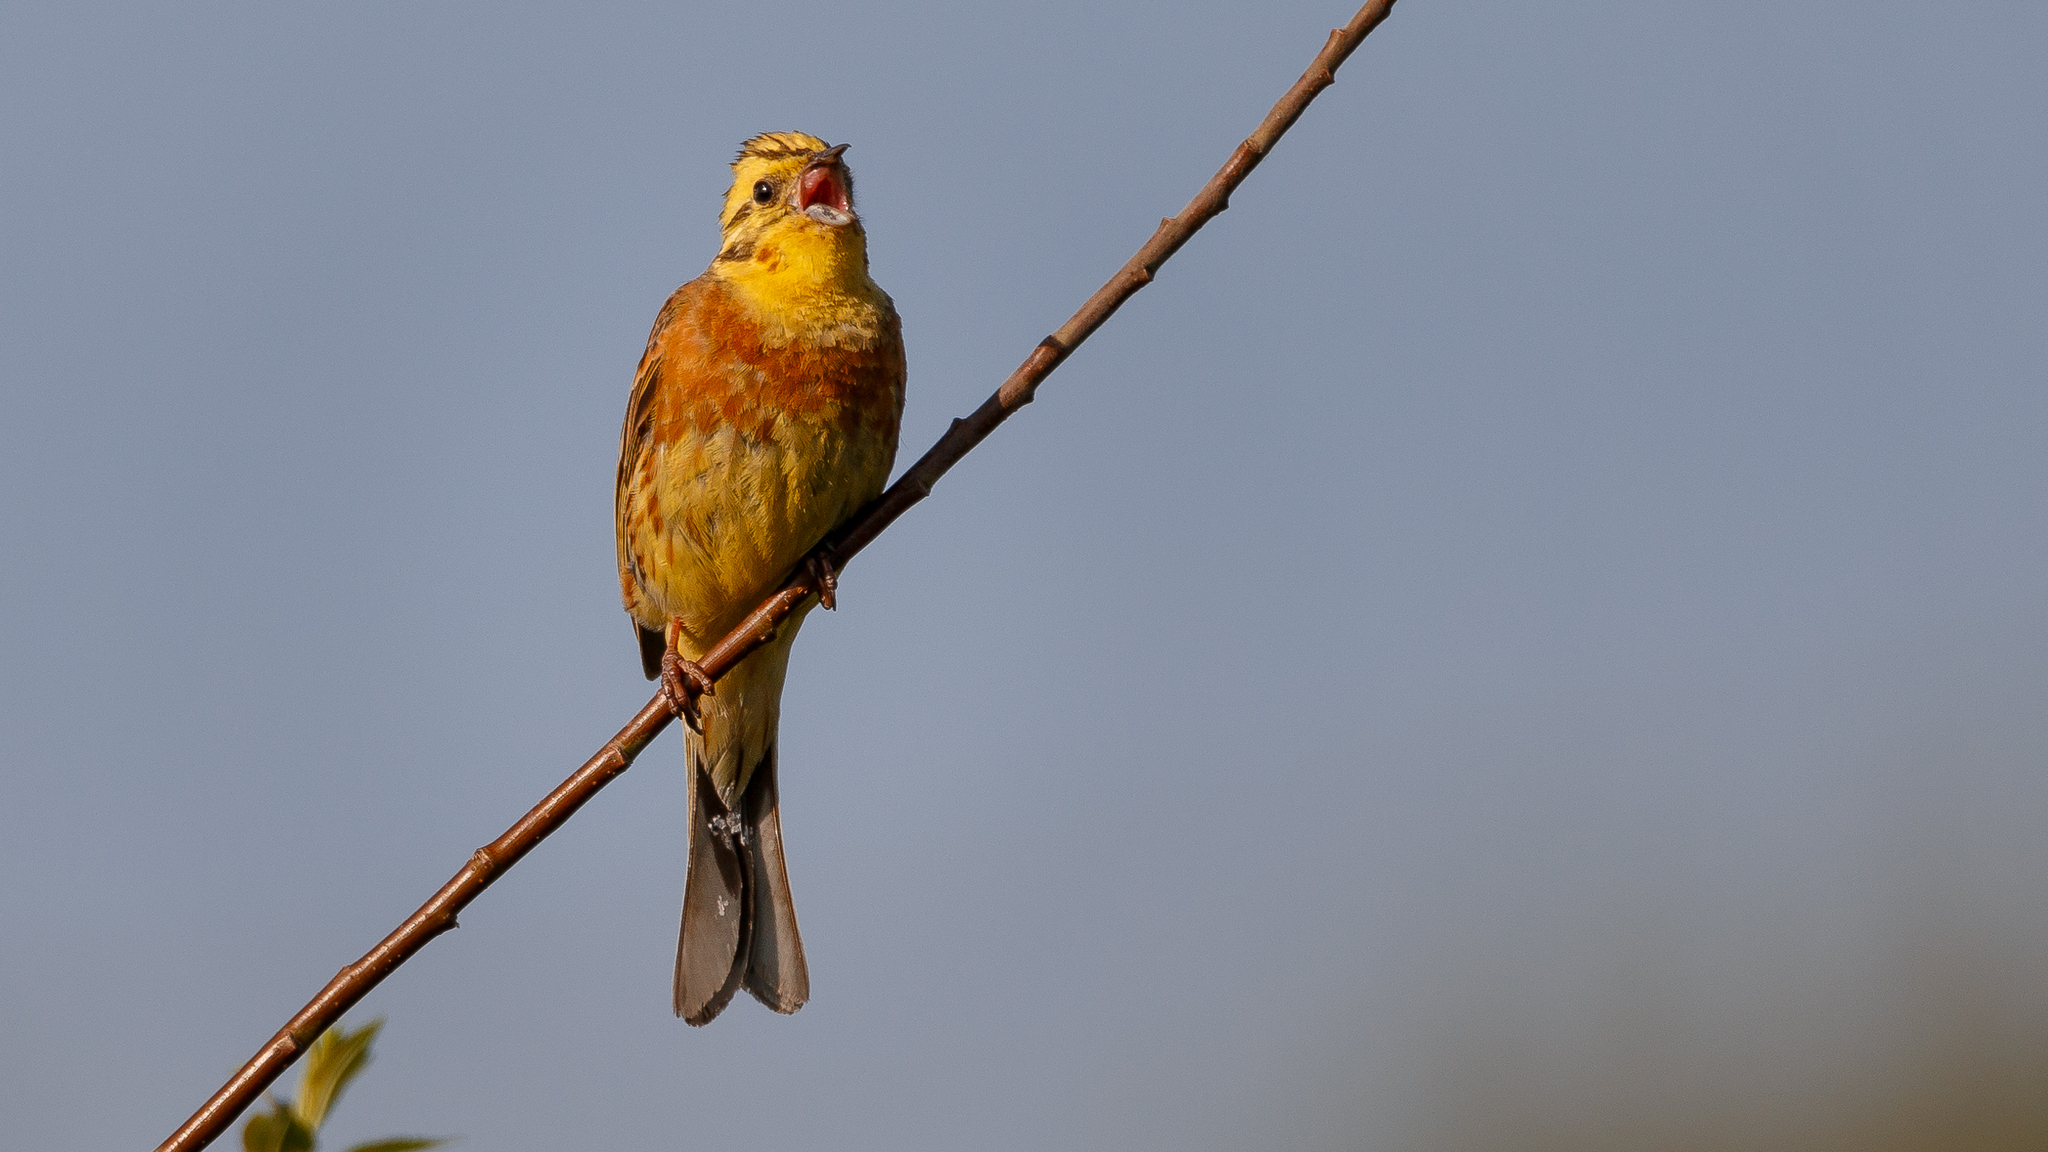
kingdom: Animalia
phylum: Chordata
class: Aves
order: Passeriformes
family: Emberizidae
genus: Emberiza
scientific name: Emberiza citrinella
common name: Yellowhammer
